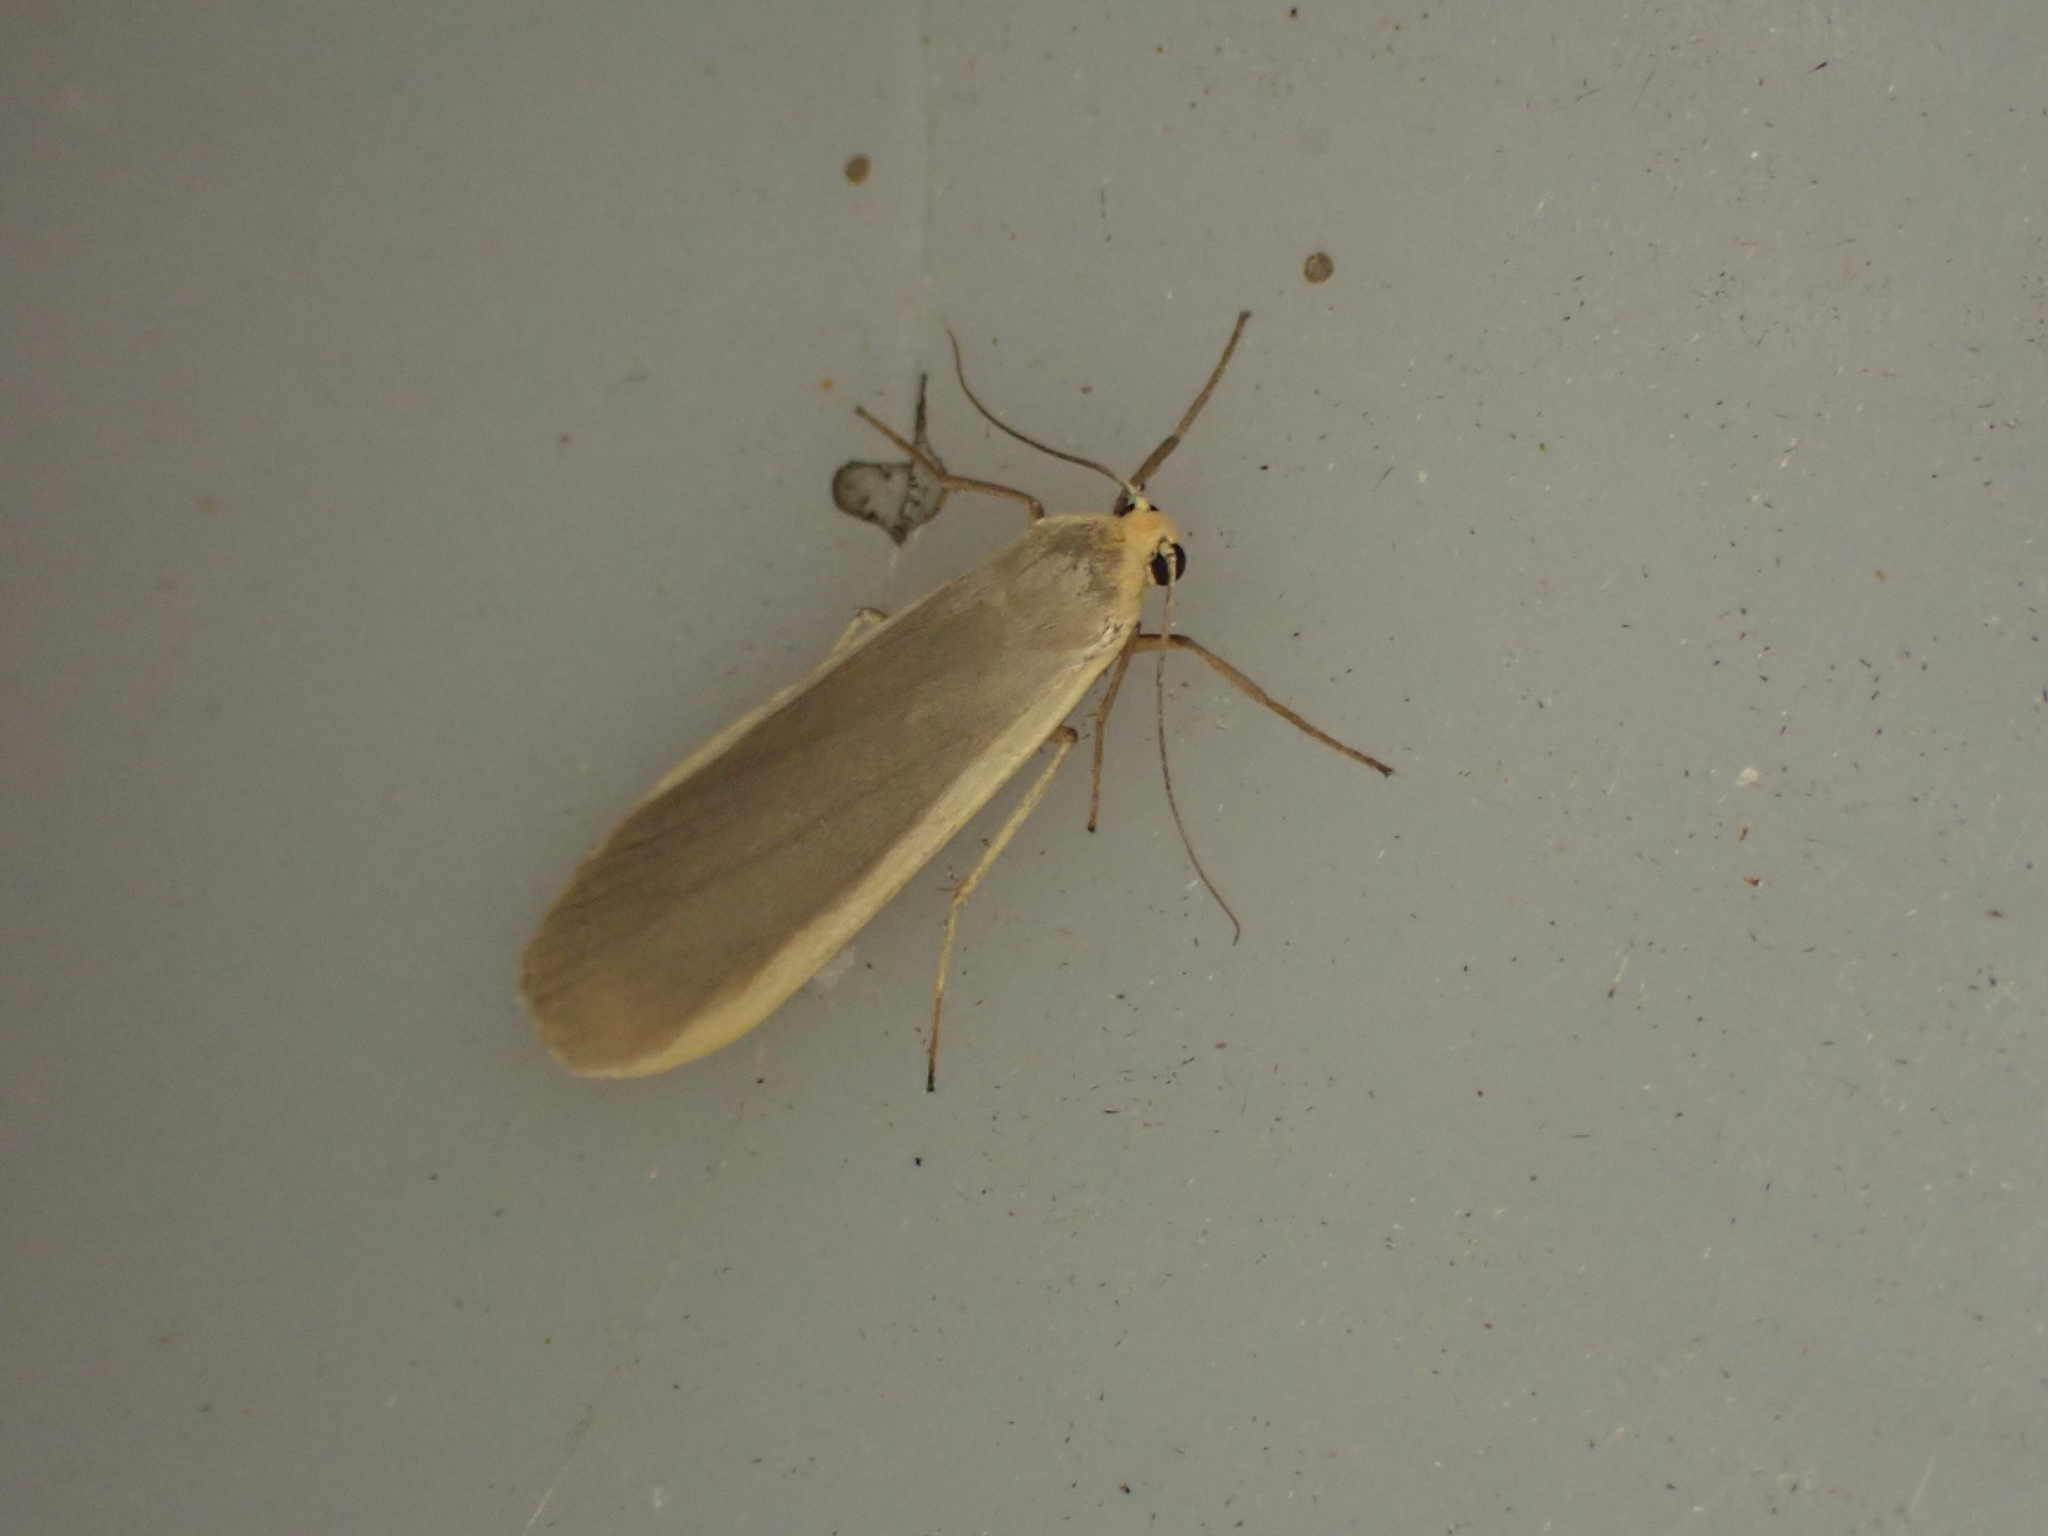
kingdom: Animalia
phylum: Arthropoda
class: Insecta
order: Lepidoptera
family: Erebidae
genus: Nyea
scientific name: Nyea lurideola
